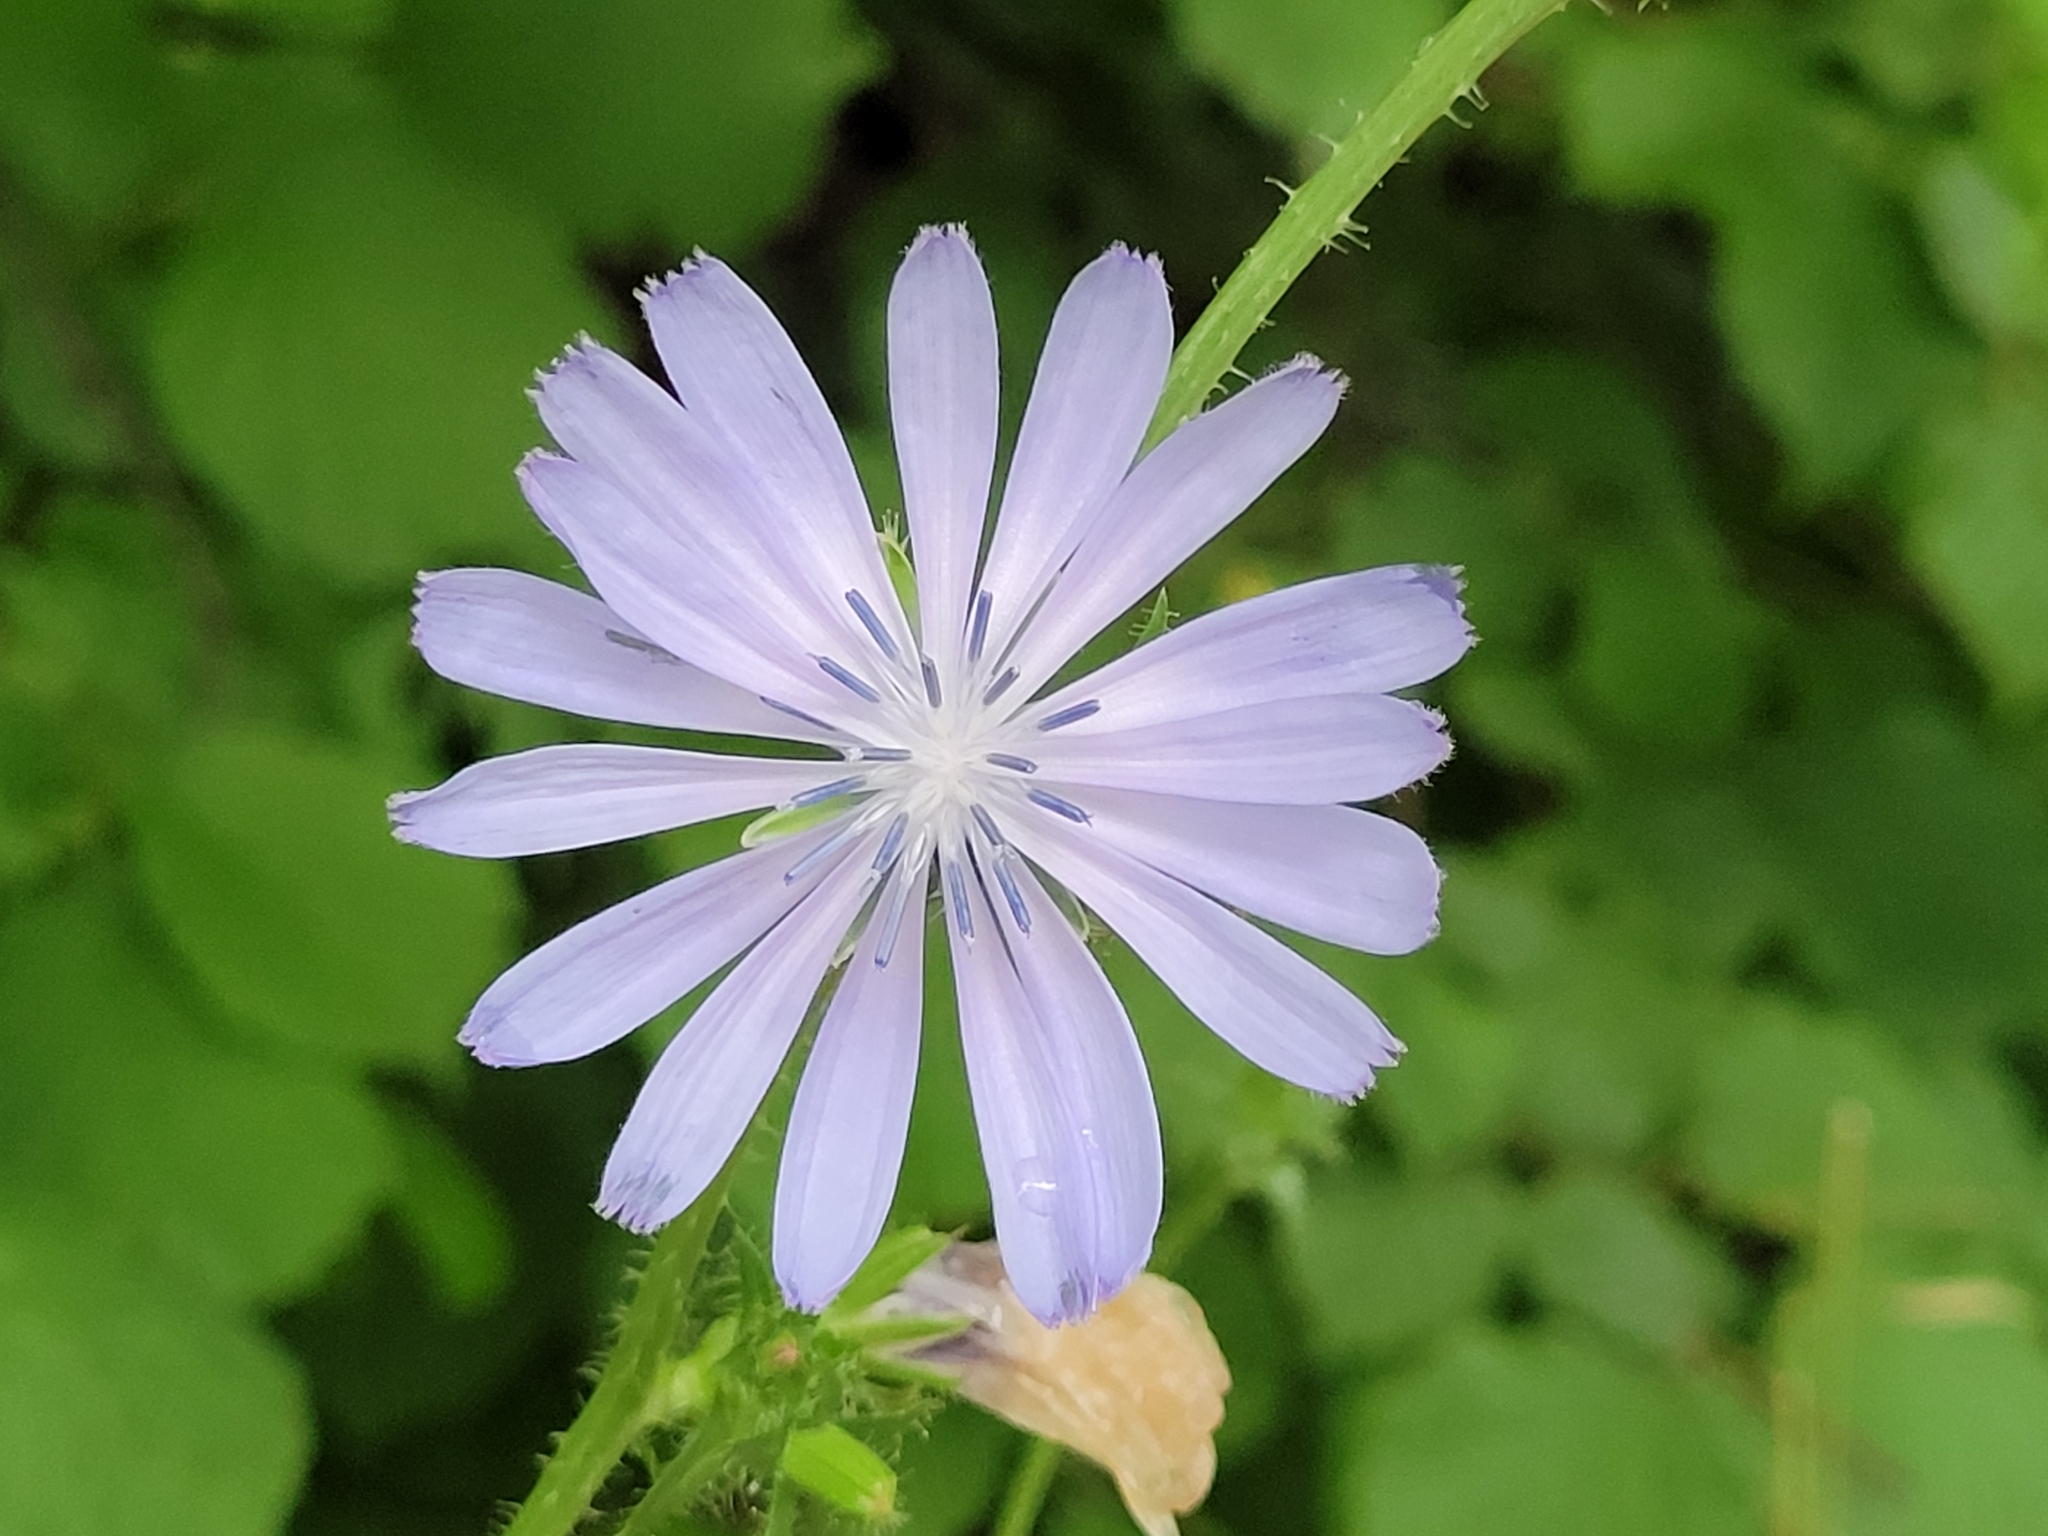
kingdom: Plantae
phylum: Tracheophyta
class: Magnoliopsida
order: Asterales
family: Asteraceae
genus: Cichorium
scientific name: Cichorium intybus
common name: Chicory
